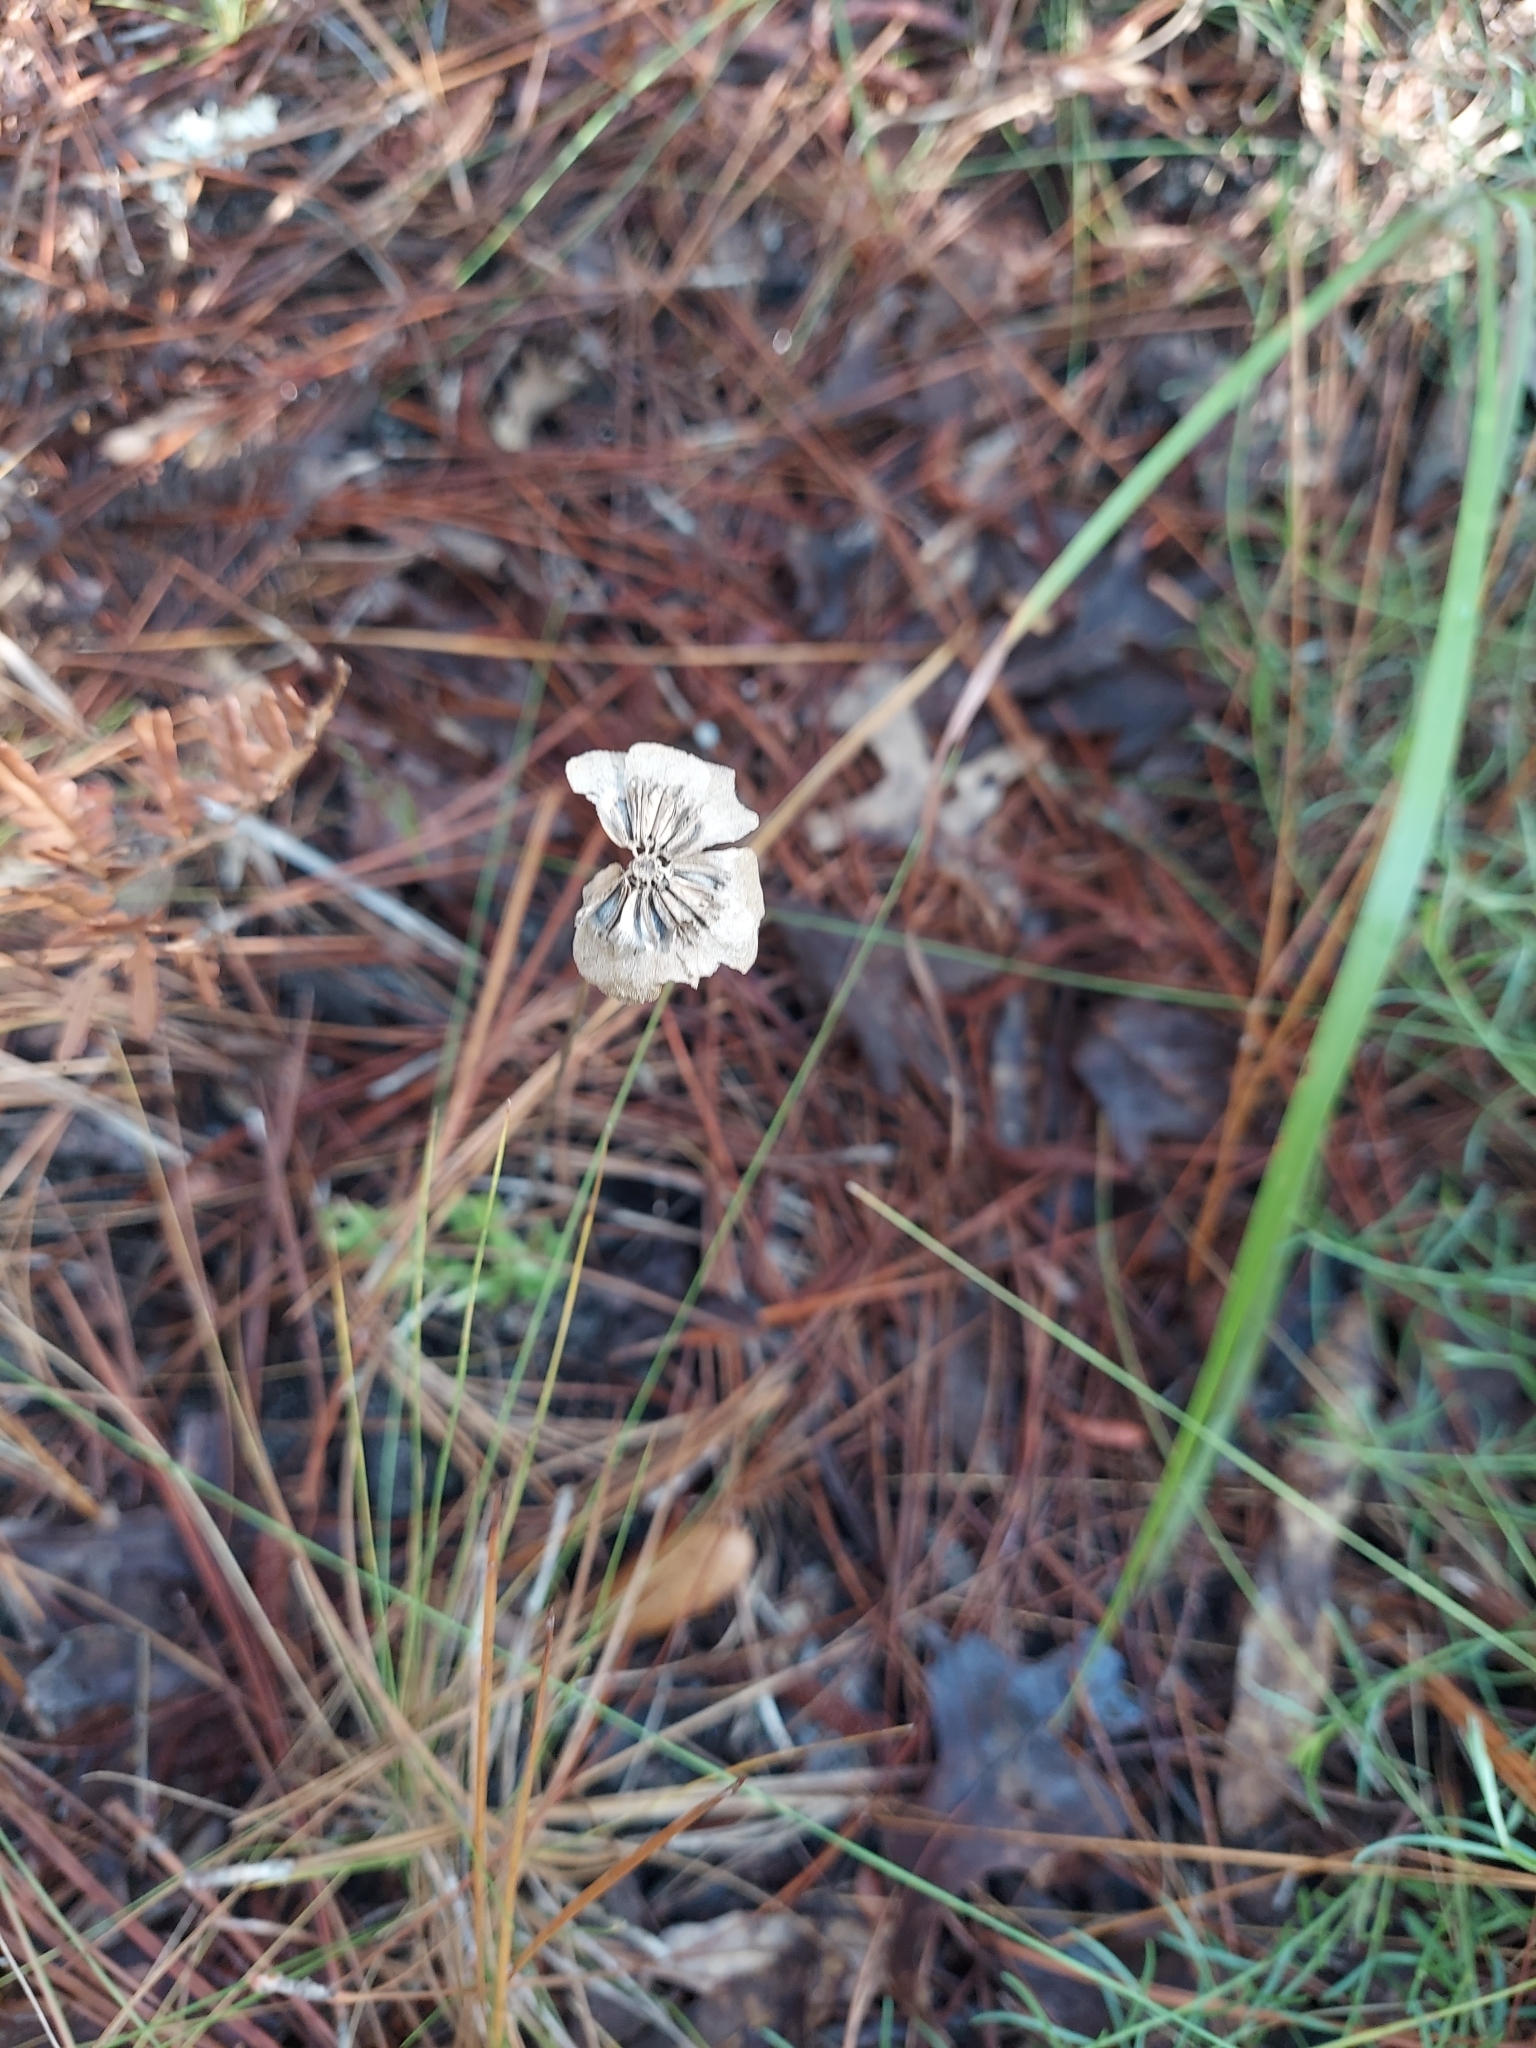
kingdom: Plantae
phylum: Tracheophyta
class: Magnoliopsida
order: Asterales
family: Asteraceae
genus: Berlandiera
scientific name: Berlandiera subacaulis
